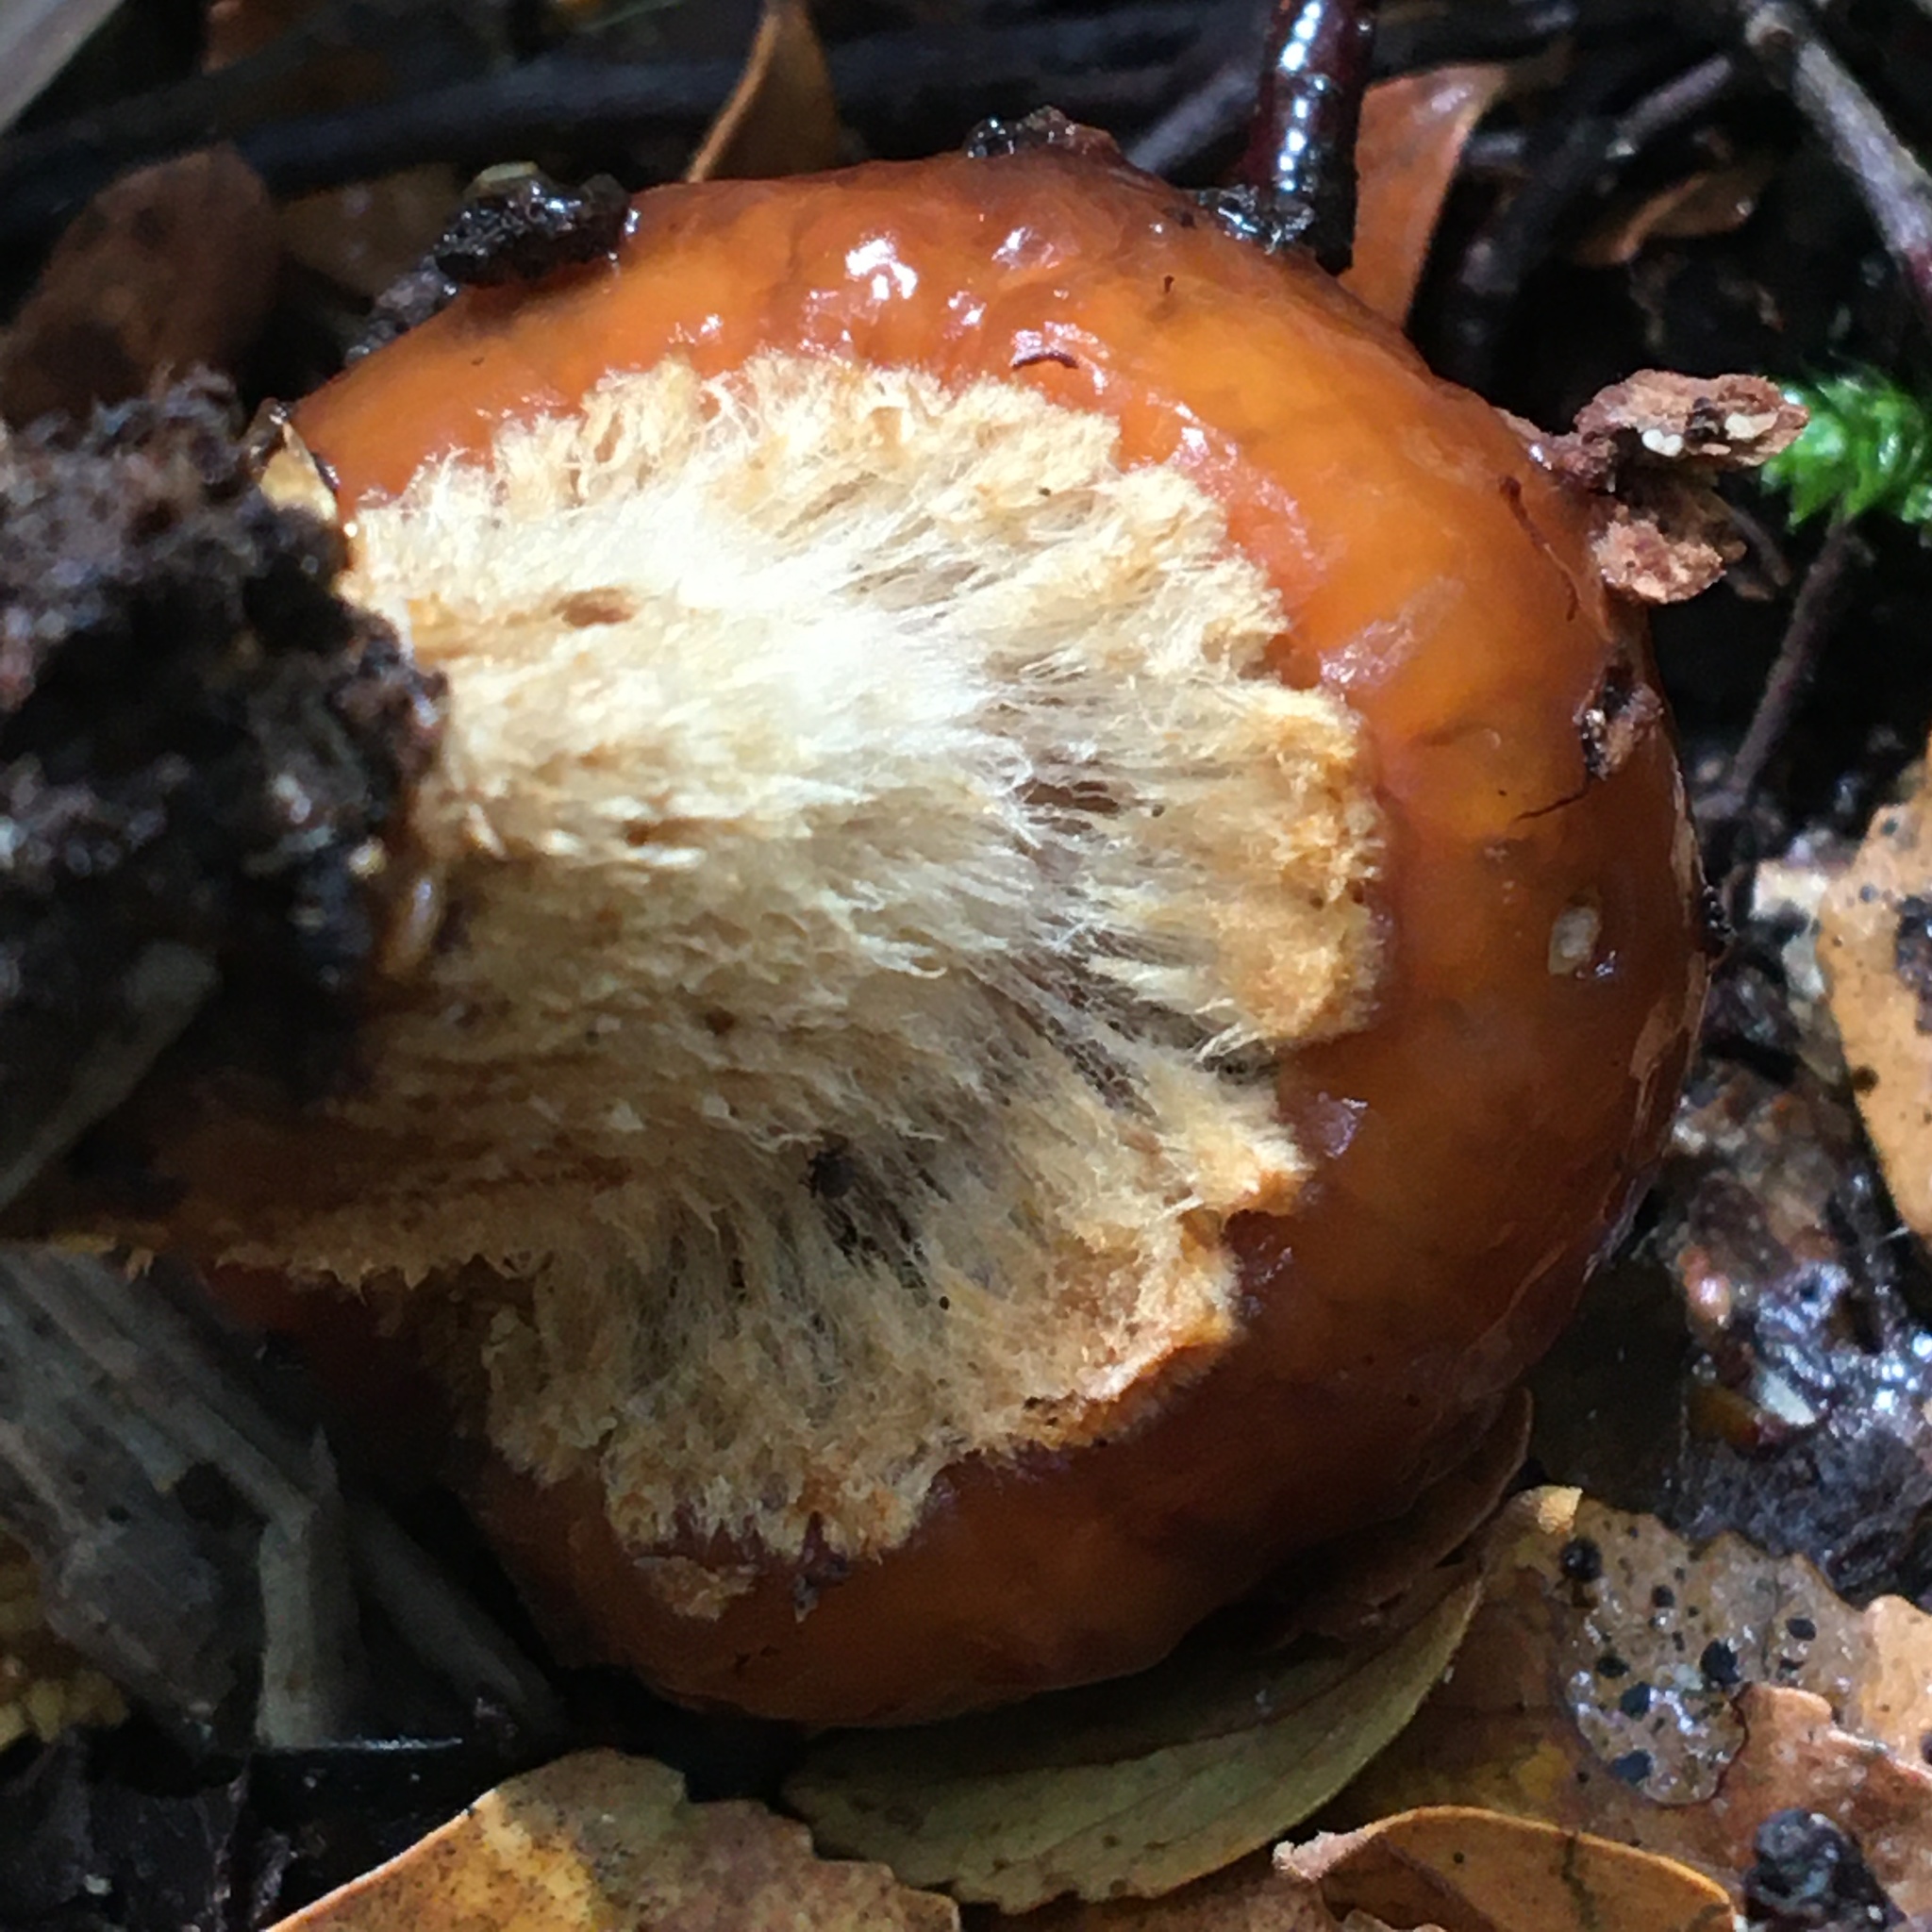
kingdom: Fungi
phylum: Basidiomycota
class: Agaricomycetes
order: Agaricales
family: Cortinariaceae
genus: Cortinarius
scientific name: Cortinarius perfoetens
